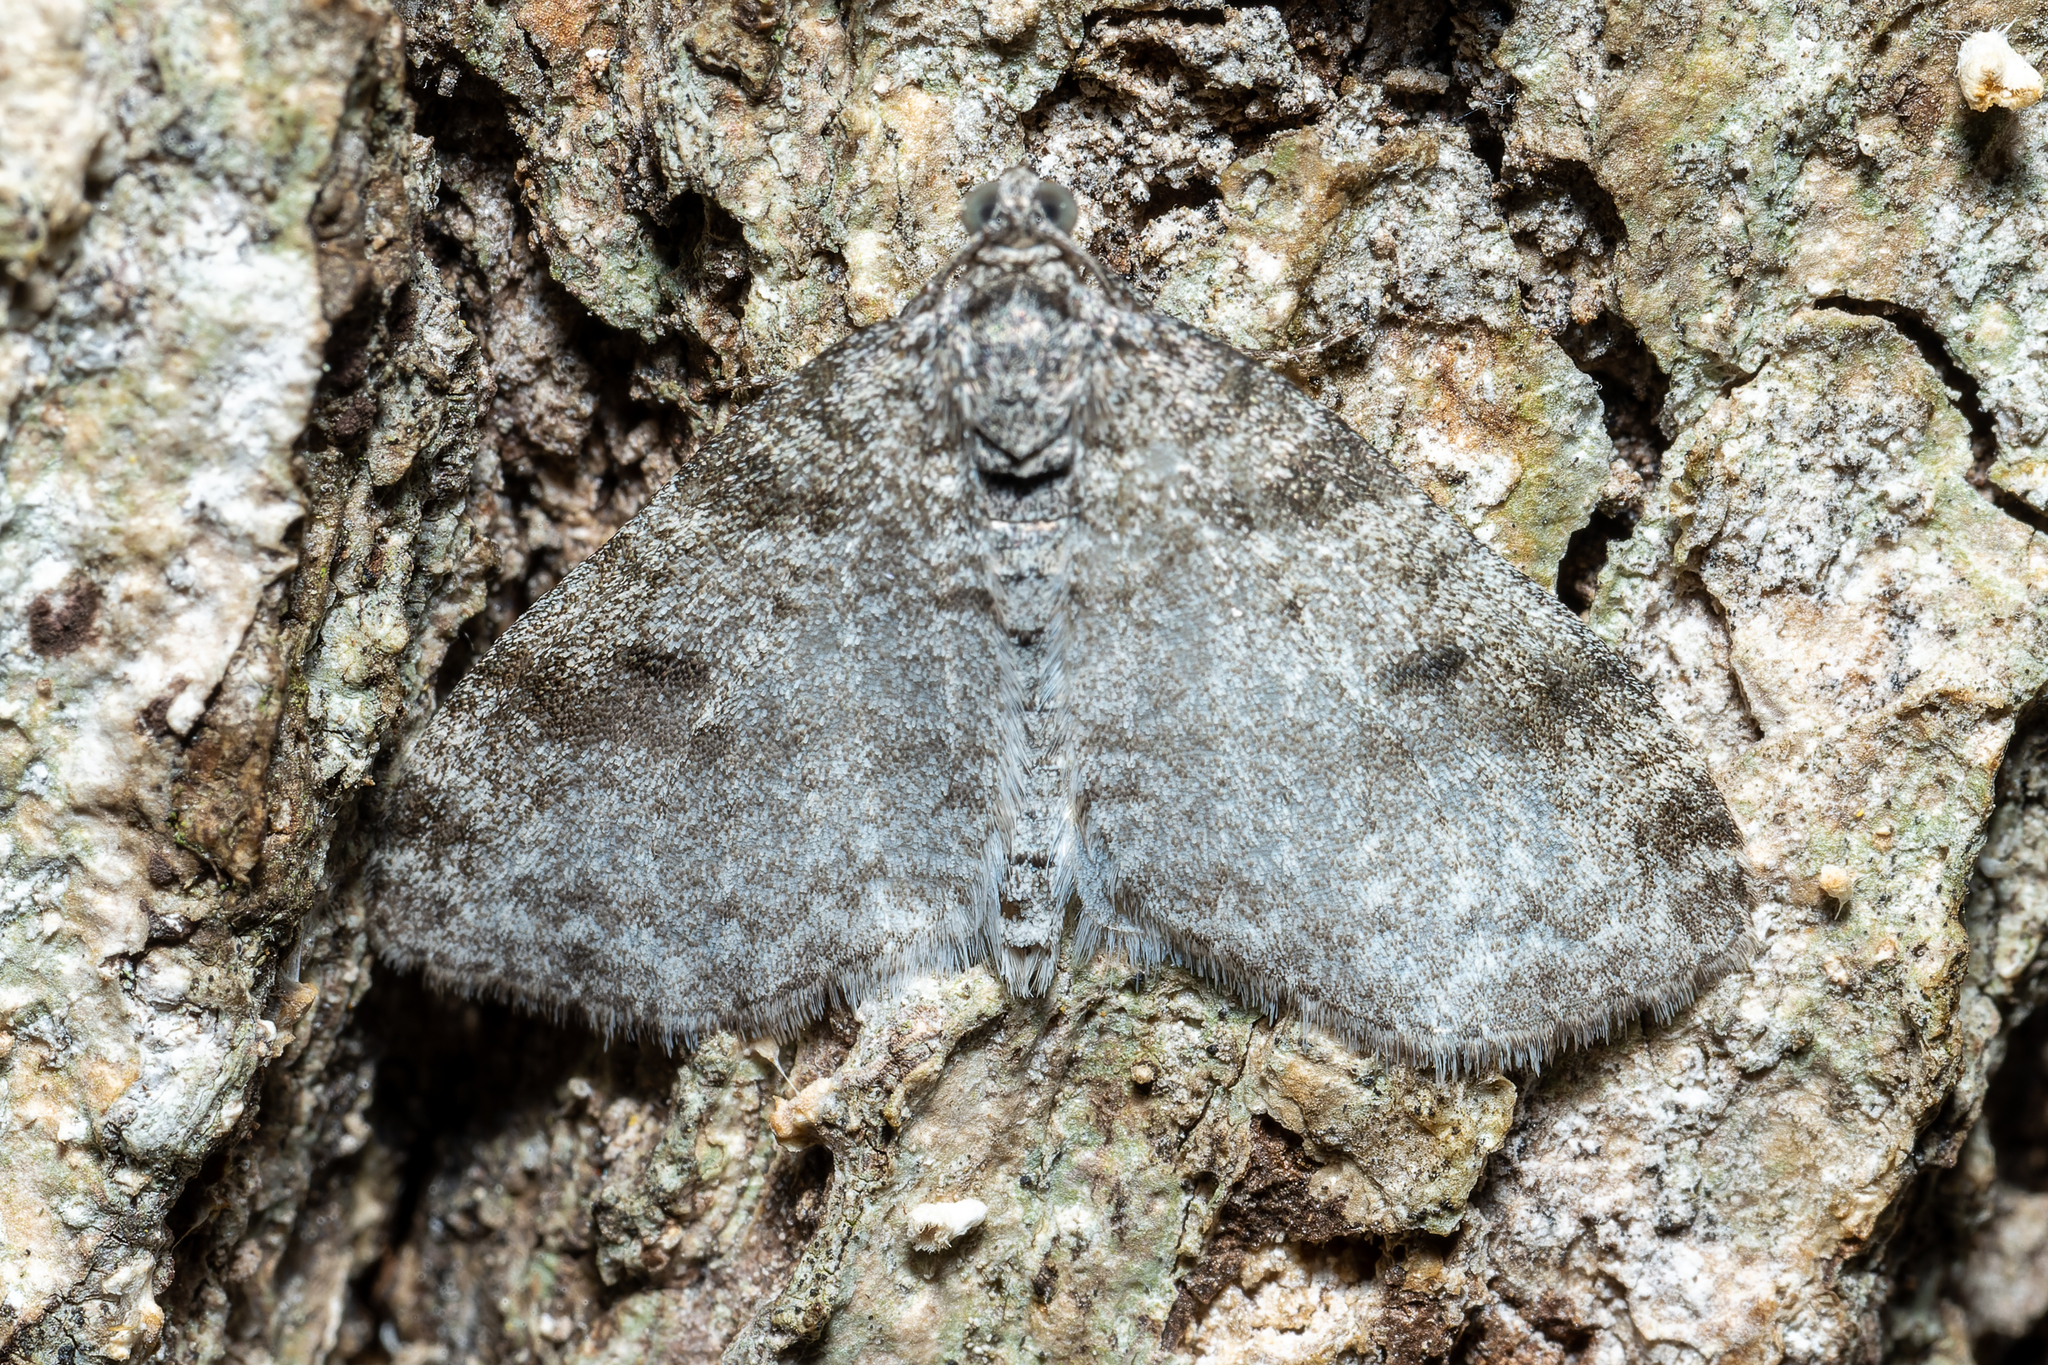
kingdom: Animalia
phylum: Arthropoda
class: Insecta
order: Lepidoptera
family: Geometridae
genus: Lobophora
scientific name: Lobophora nivigerata
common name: Powdered bigwing
